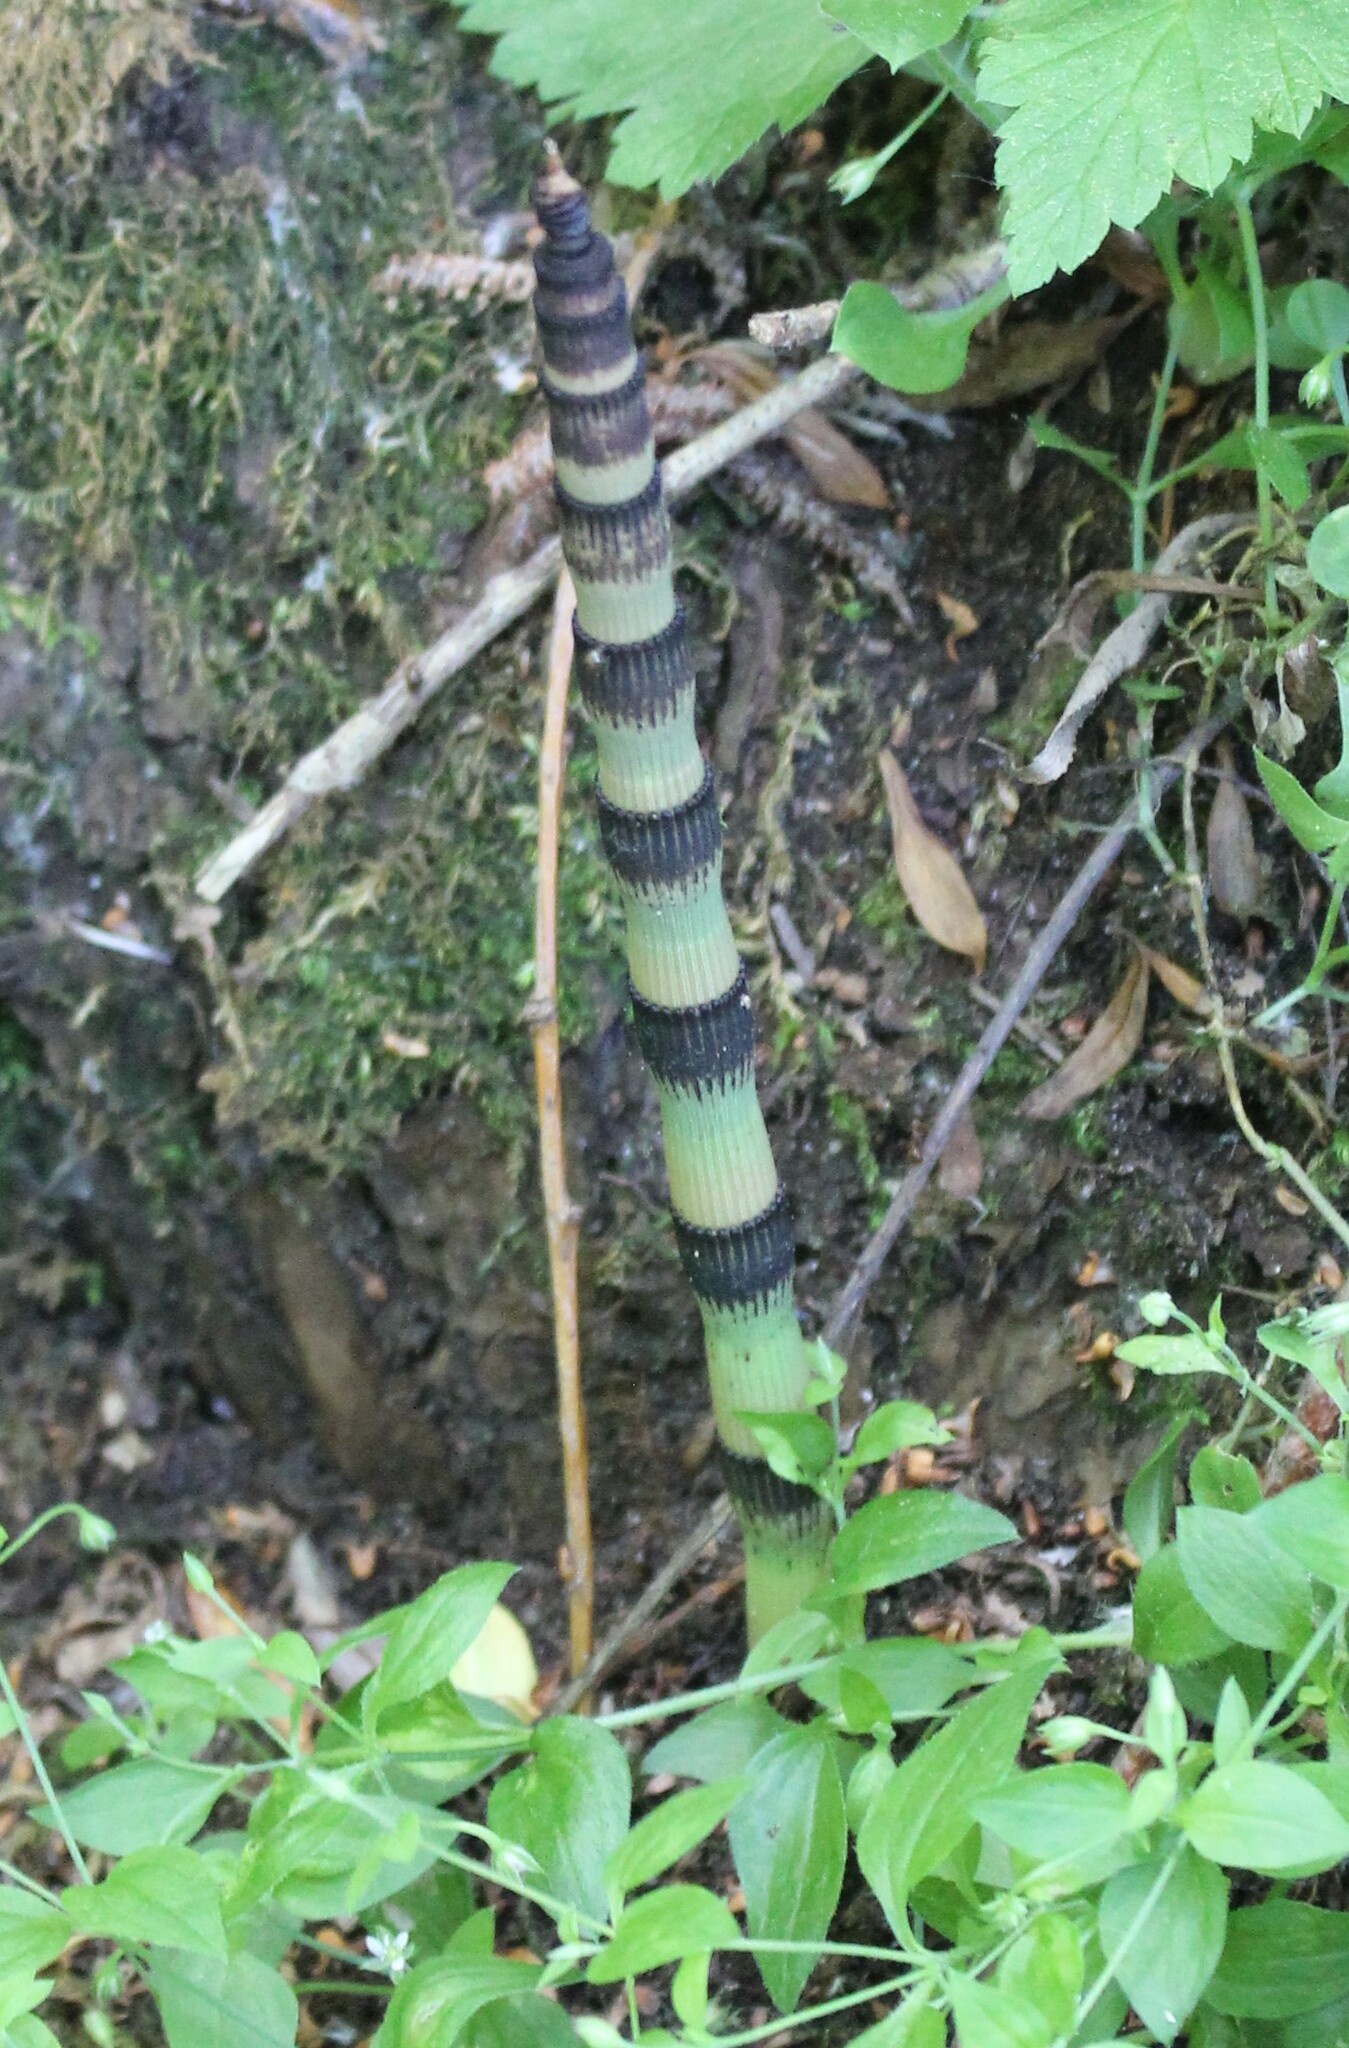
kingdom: Plantae
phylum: Tracheophyta
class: Polypodiopsida
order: Equisetales
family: Equisetaceae
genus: Equisetum
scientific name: Equisetum hyemale
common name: Rough horsetail
